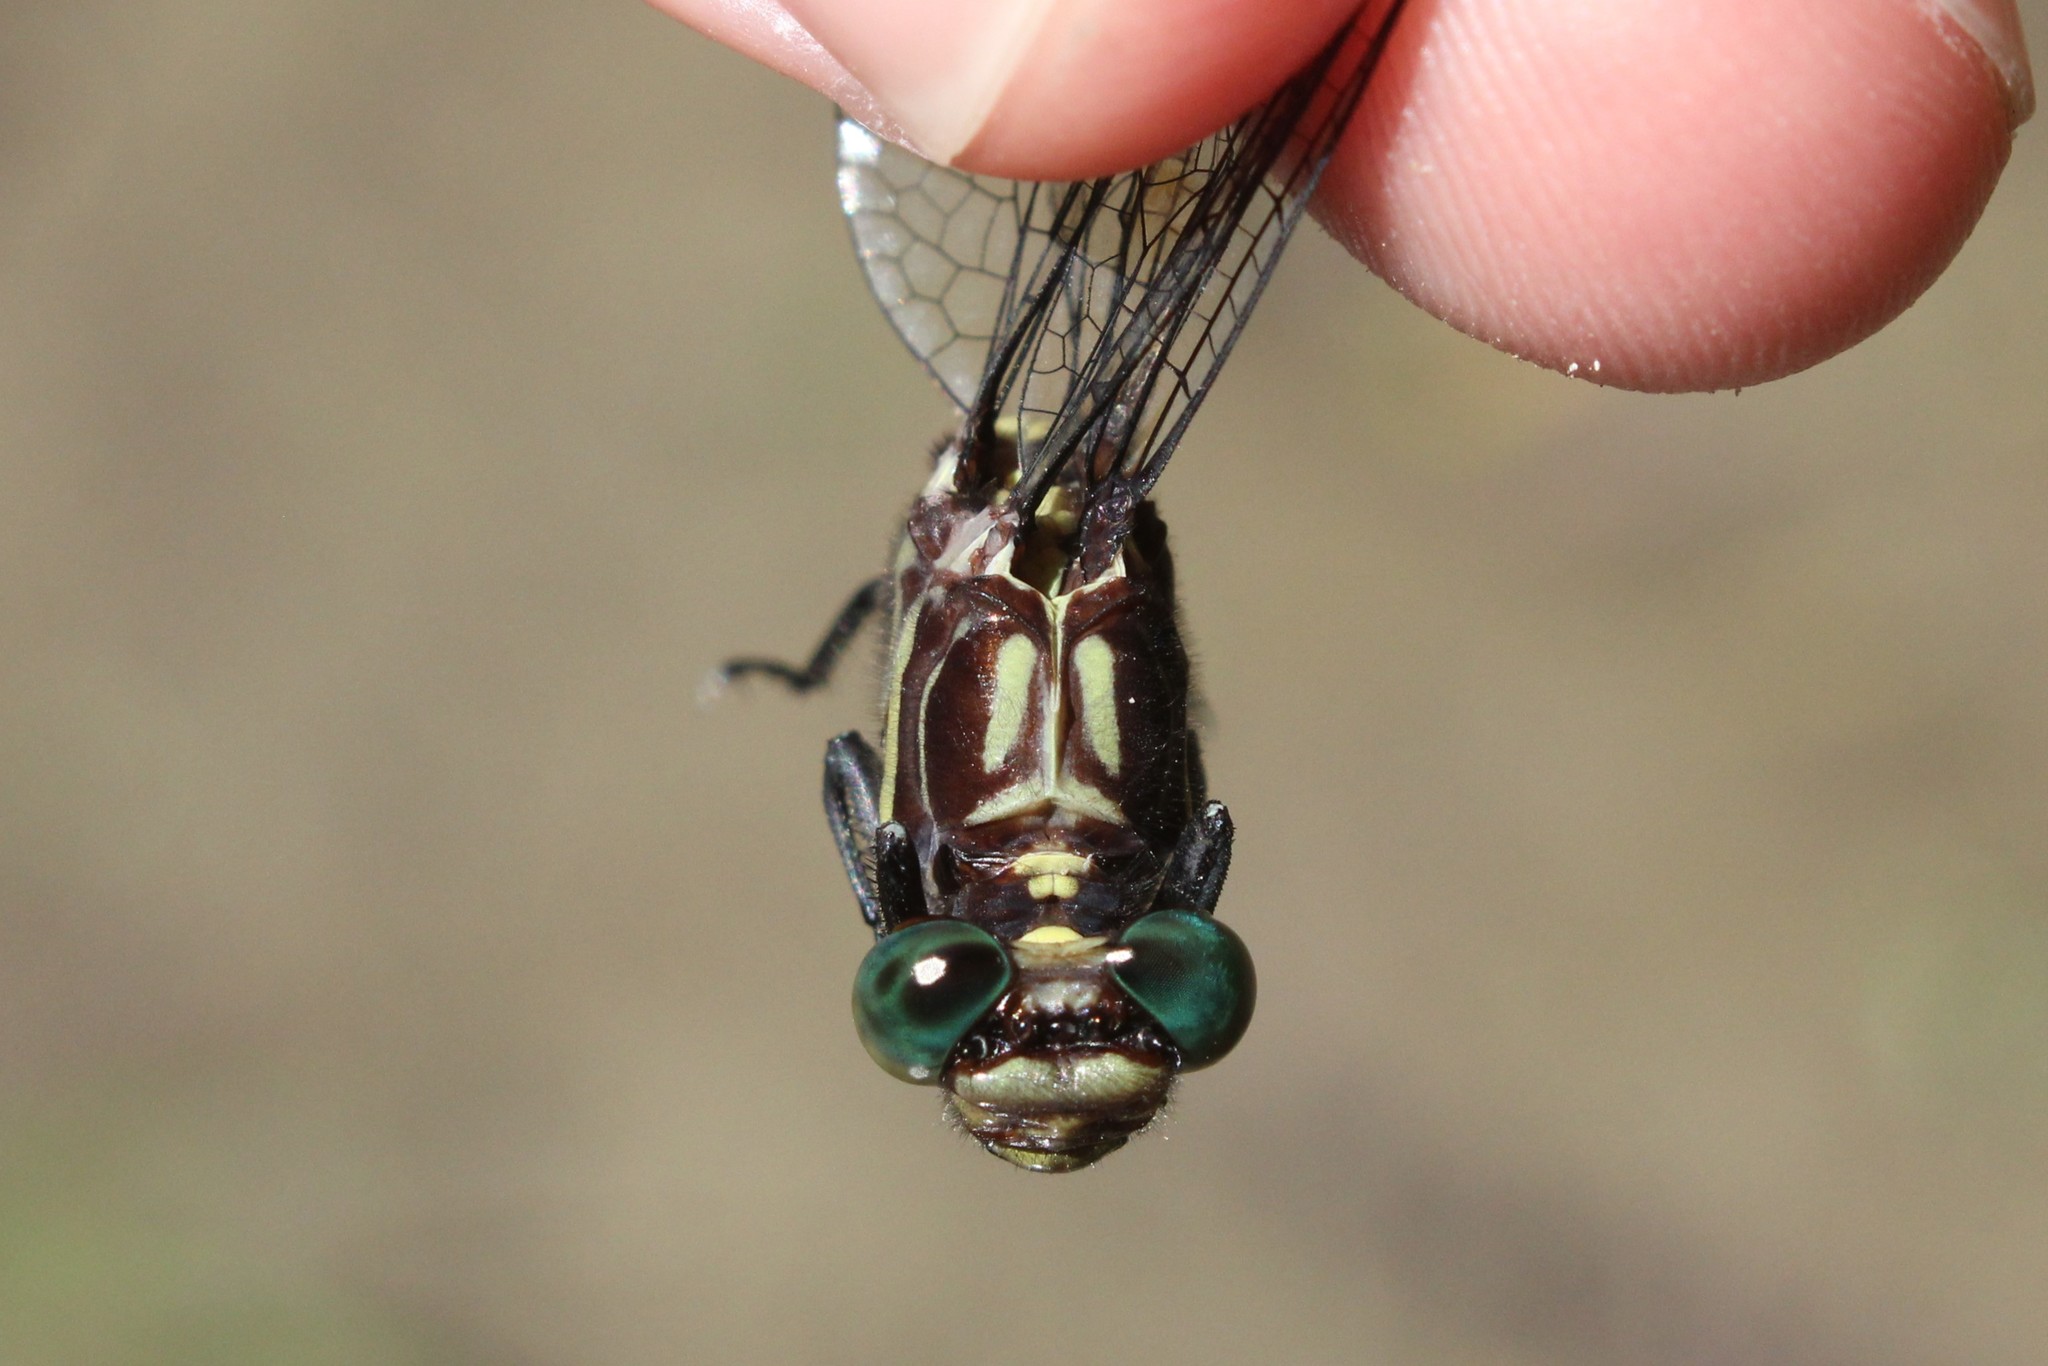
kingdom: Animalia
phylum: Arthropoda
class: Insecta
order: Odonata
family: Gomphidae
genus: Stylurus
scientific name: Stylurus amnicola
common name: Riverine clubtail
